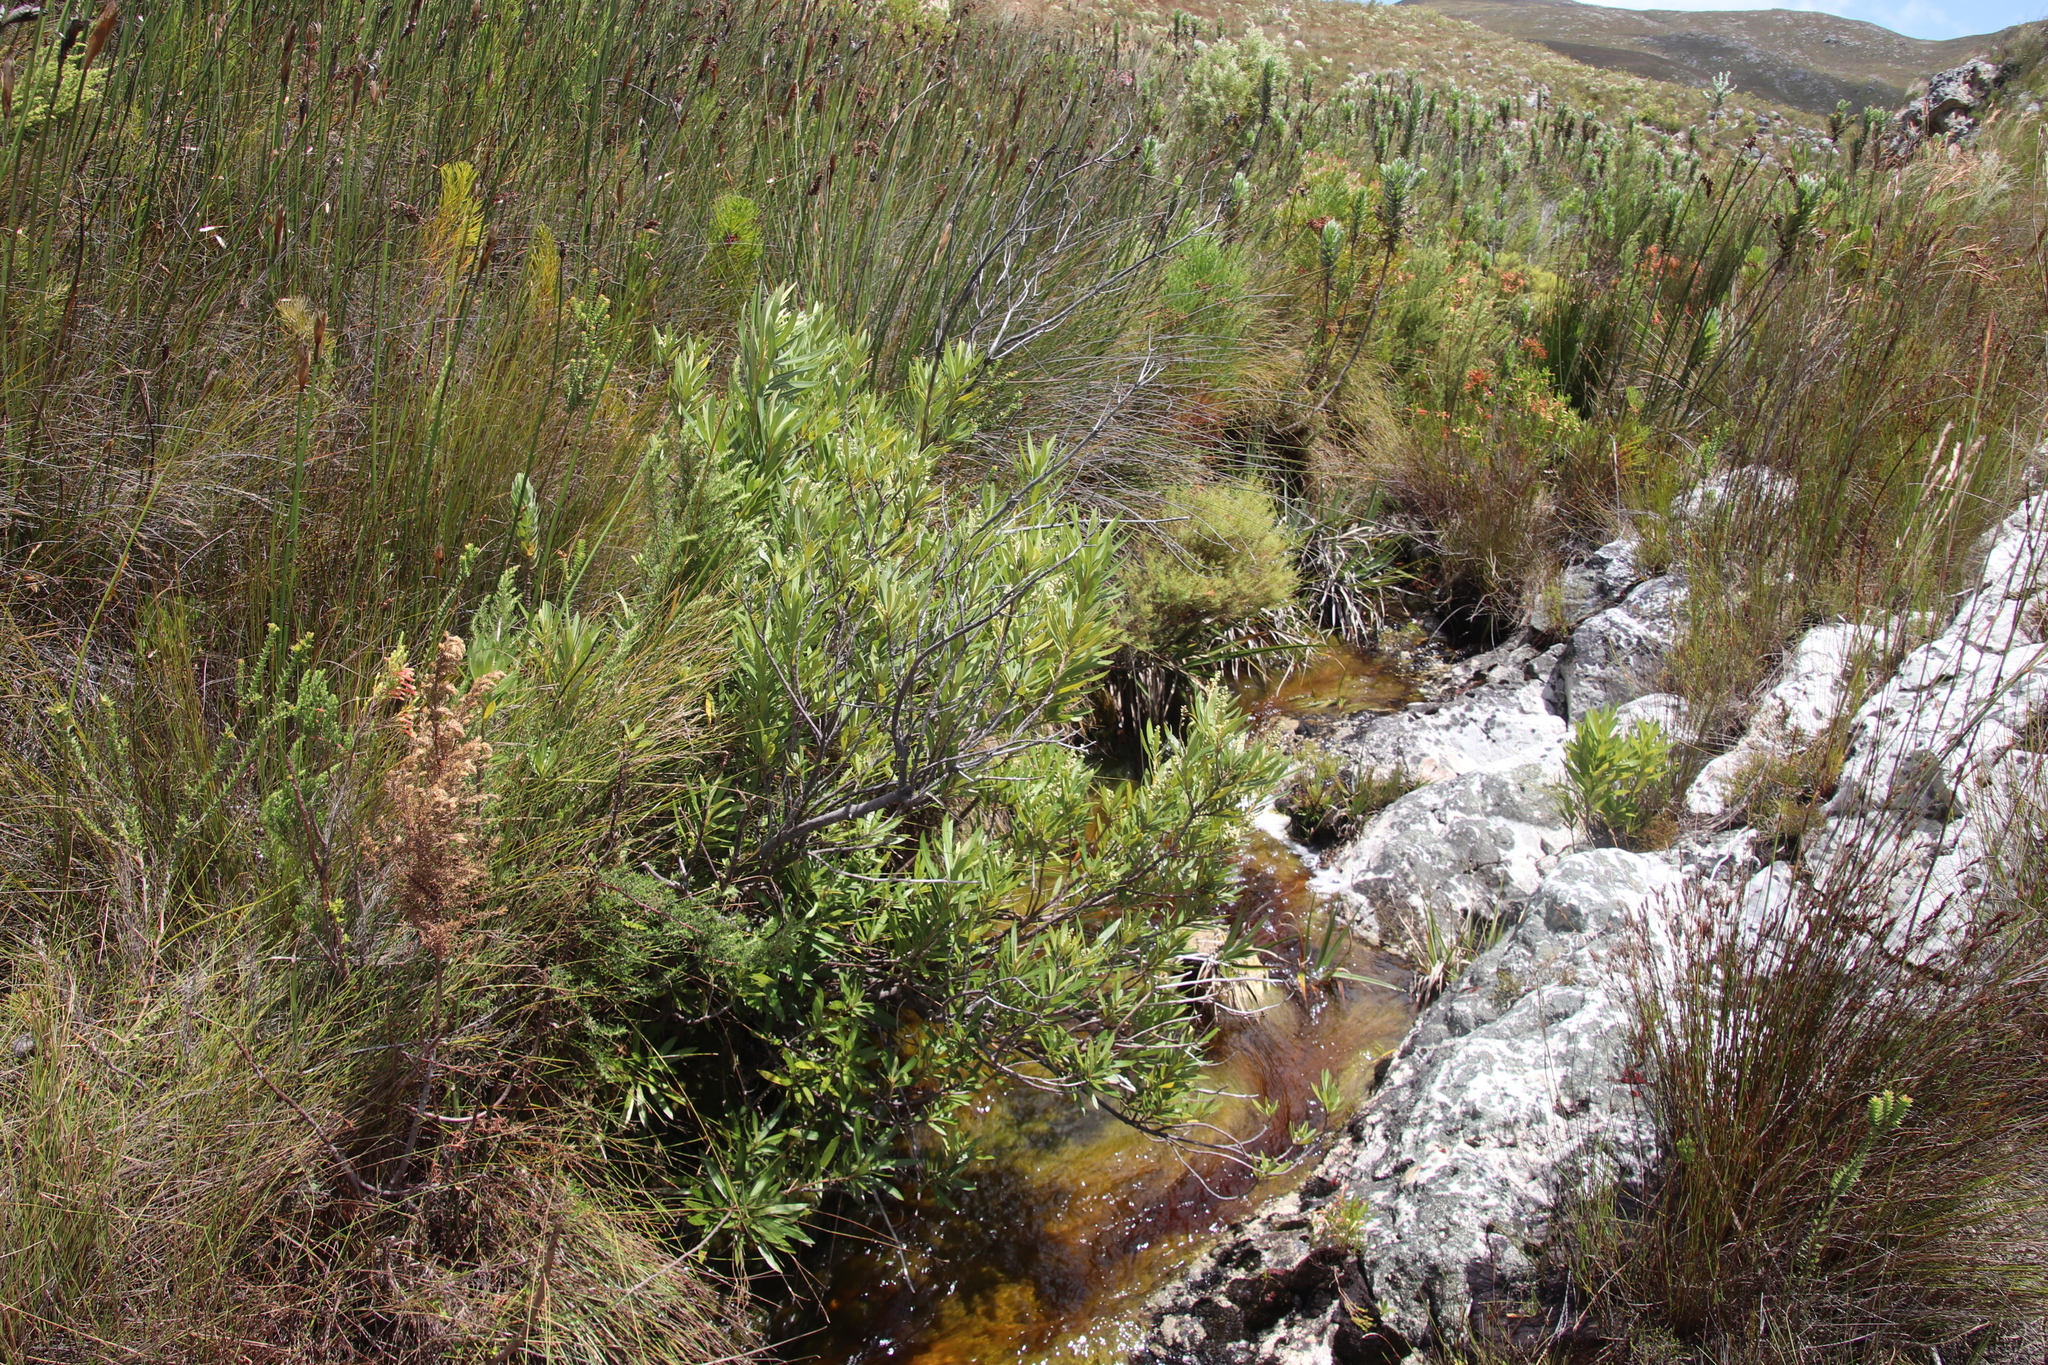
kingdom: Plantae
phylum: Tracheophyta
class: Magnoliopsida
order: Asterales
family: Asteraceae
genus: Brachylaena
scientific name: Brachylaena neriifolia
